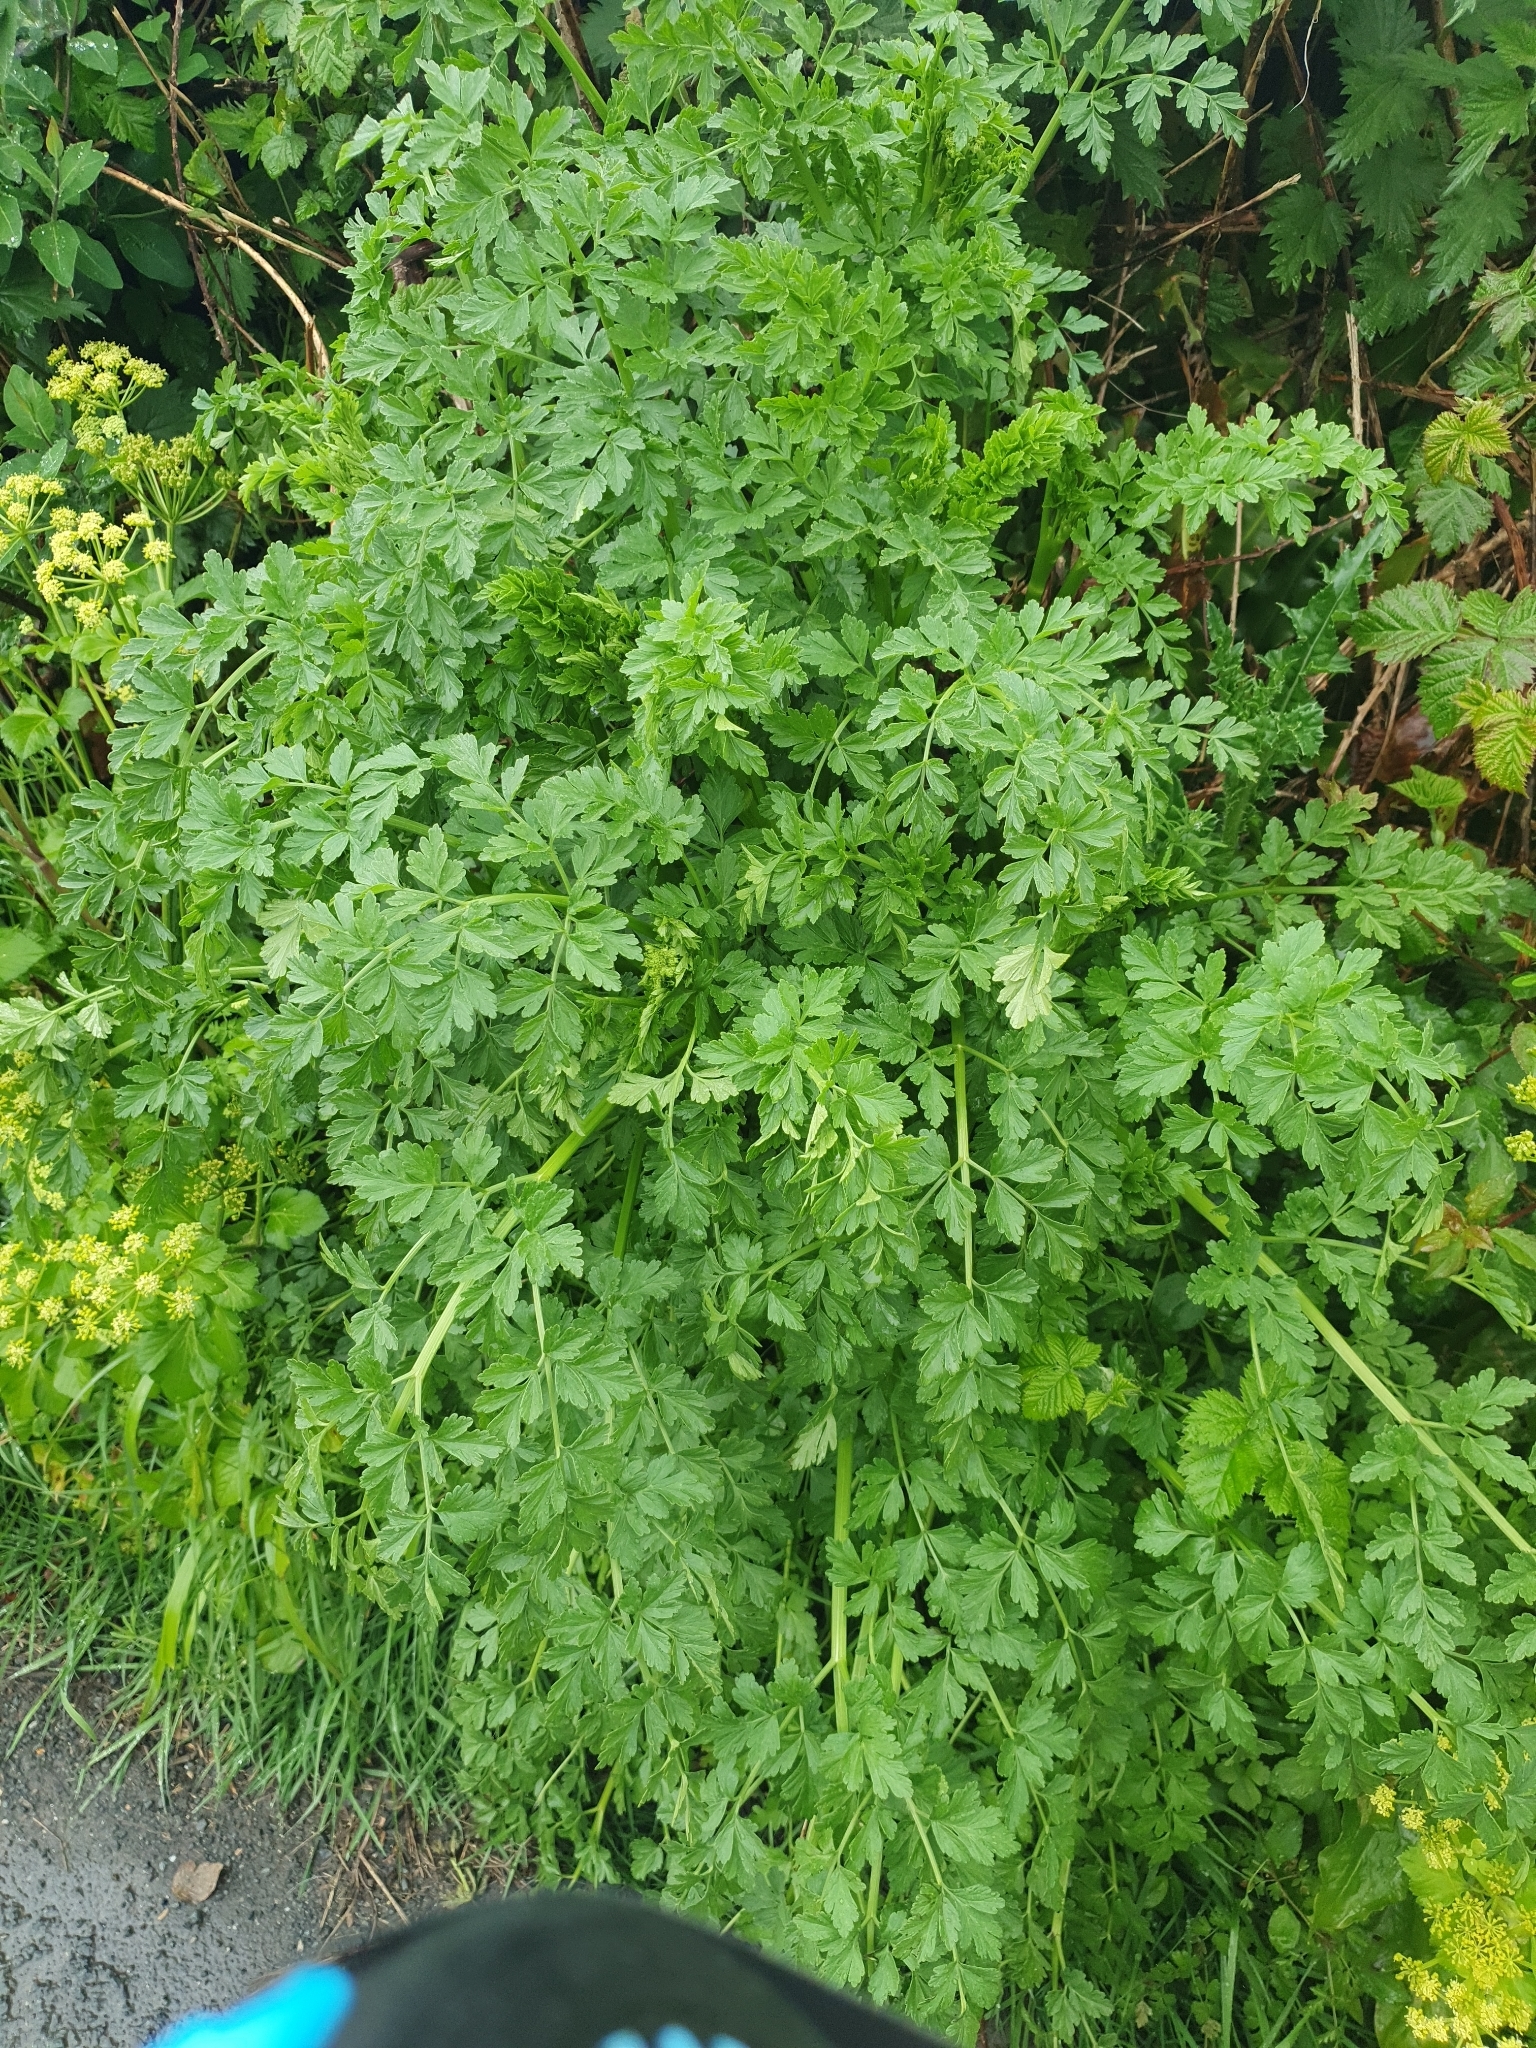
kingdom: Plantae
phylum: Tracheophyta
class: Magnoliopsida
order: Apiales
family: Apiaceae
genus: Oenanthe
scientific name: Oenanthe crocata
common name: Hemlock water-dropwort
